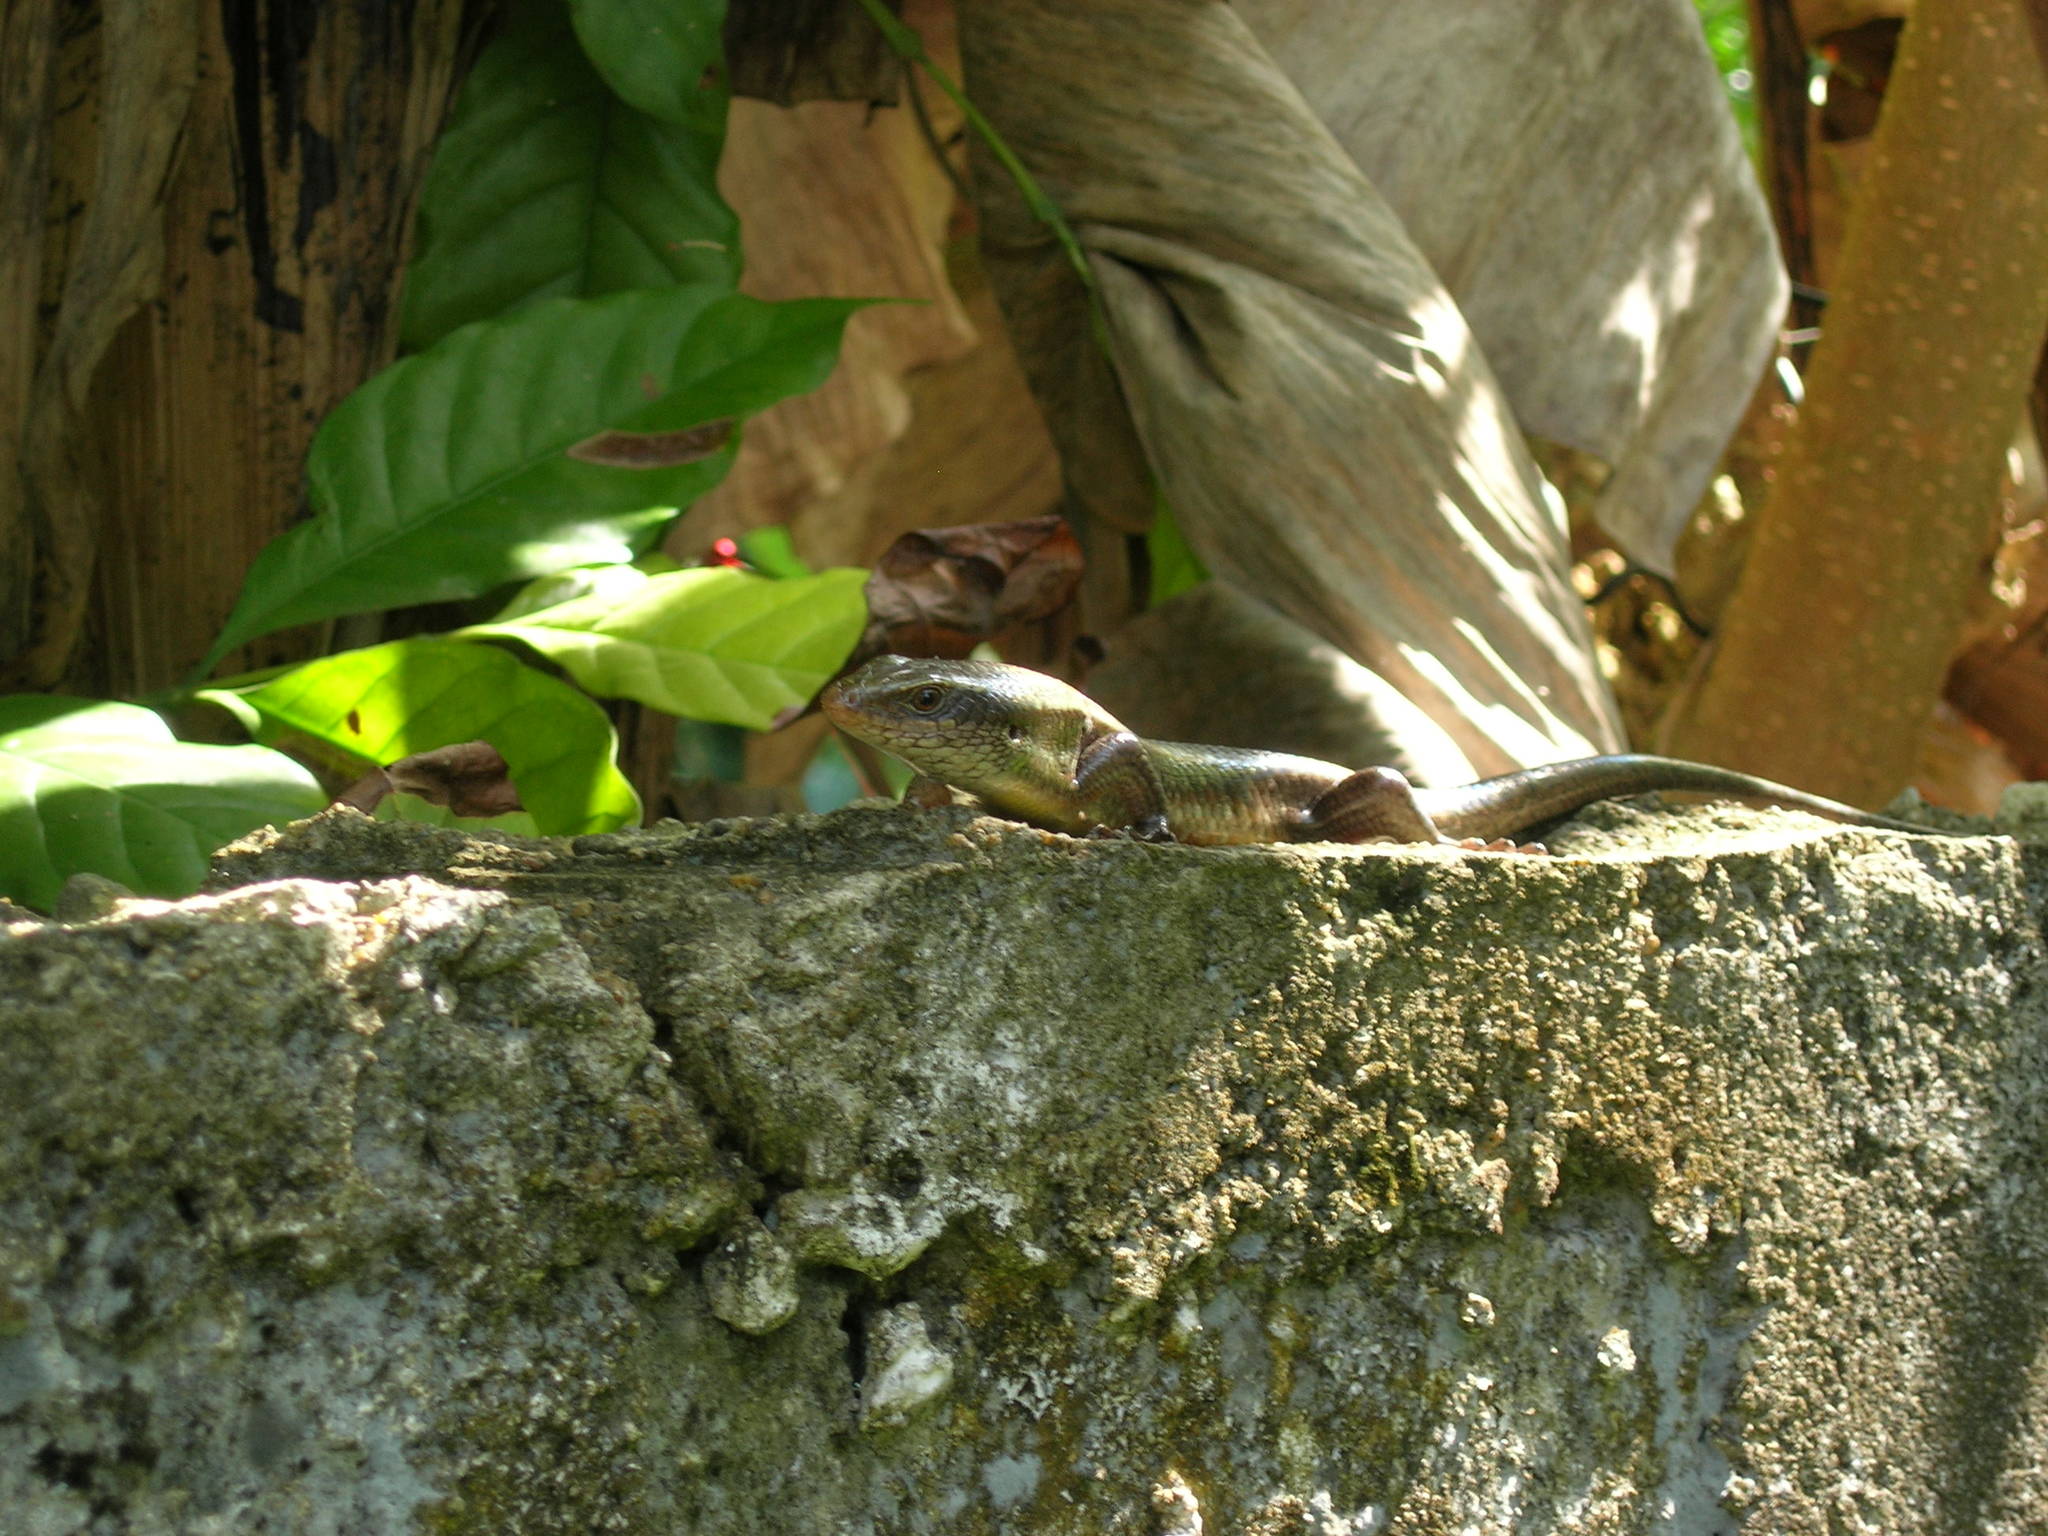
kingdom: Animalia
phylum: Chordata
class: Squamata
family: Scincidae
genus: Eutropis
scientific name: Eutropis lankae
